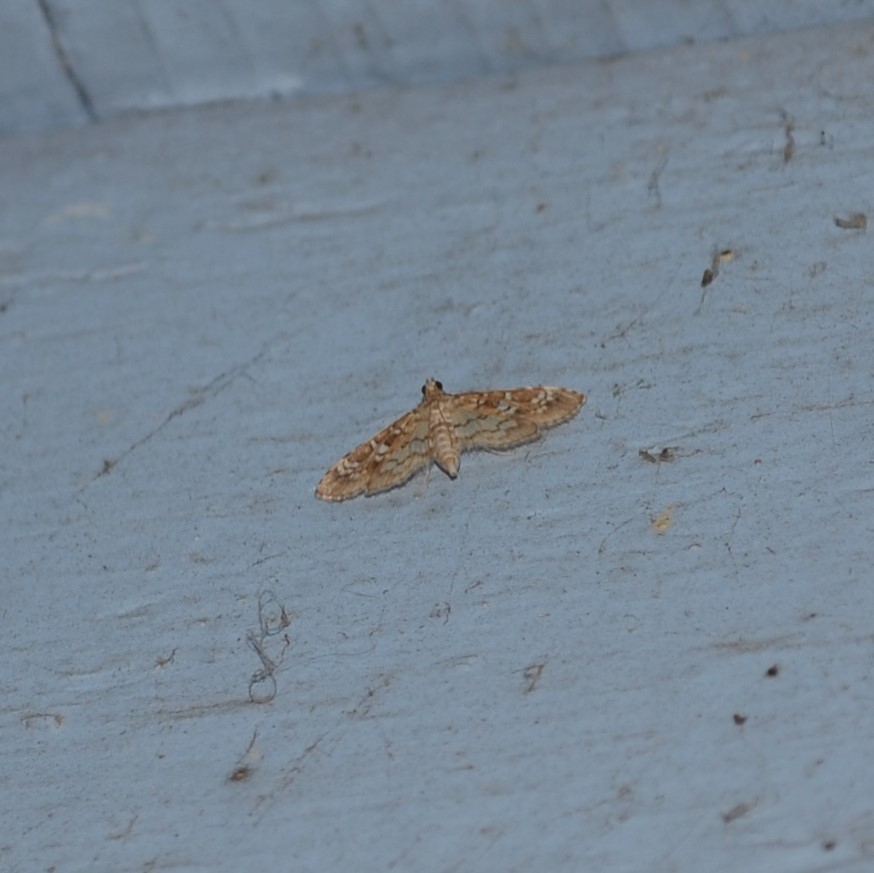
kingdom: Animalia
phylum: Arthropoda
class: Insecta
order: Lepidoptera
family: Crambidae
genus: Samea
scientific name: Samea multiplicalis
